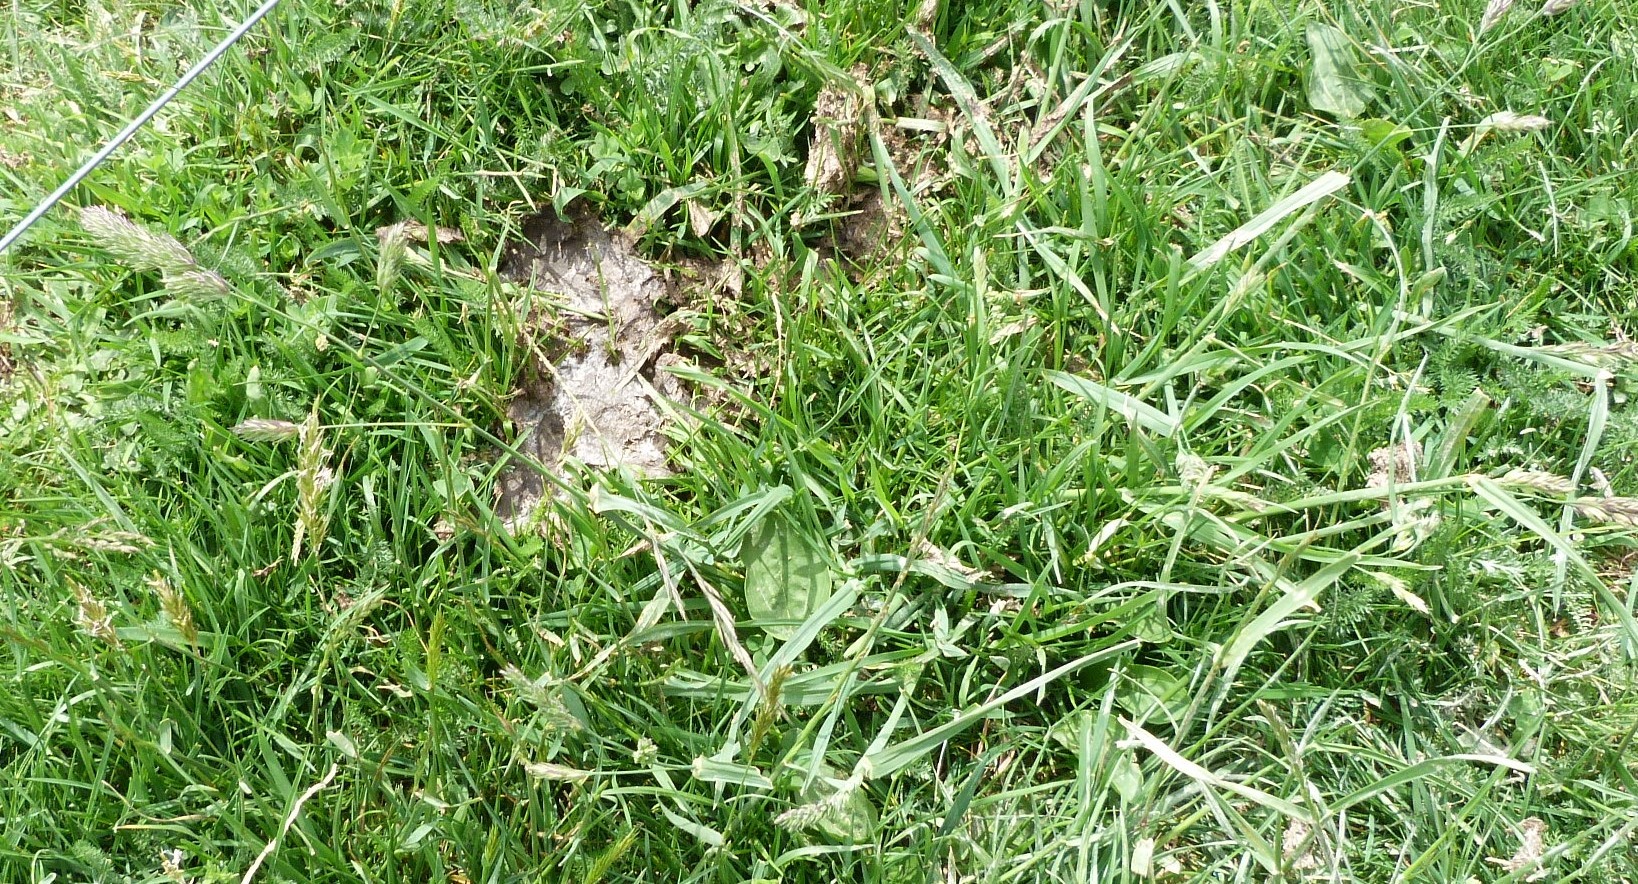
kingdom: Plantae
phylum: Tracheophyta
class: Liliopsida
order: Poales
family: Poaceae
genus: Dactylis
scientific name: Dactylis glomerata
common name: Orchardgrass
